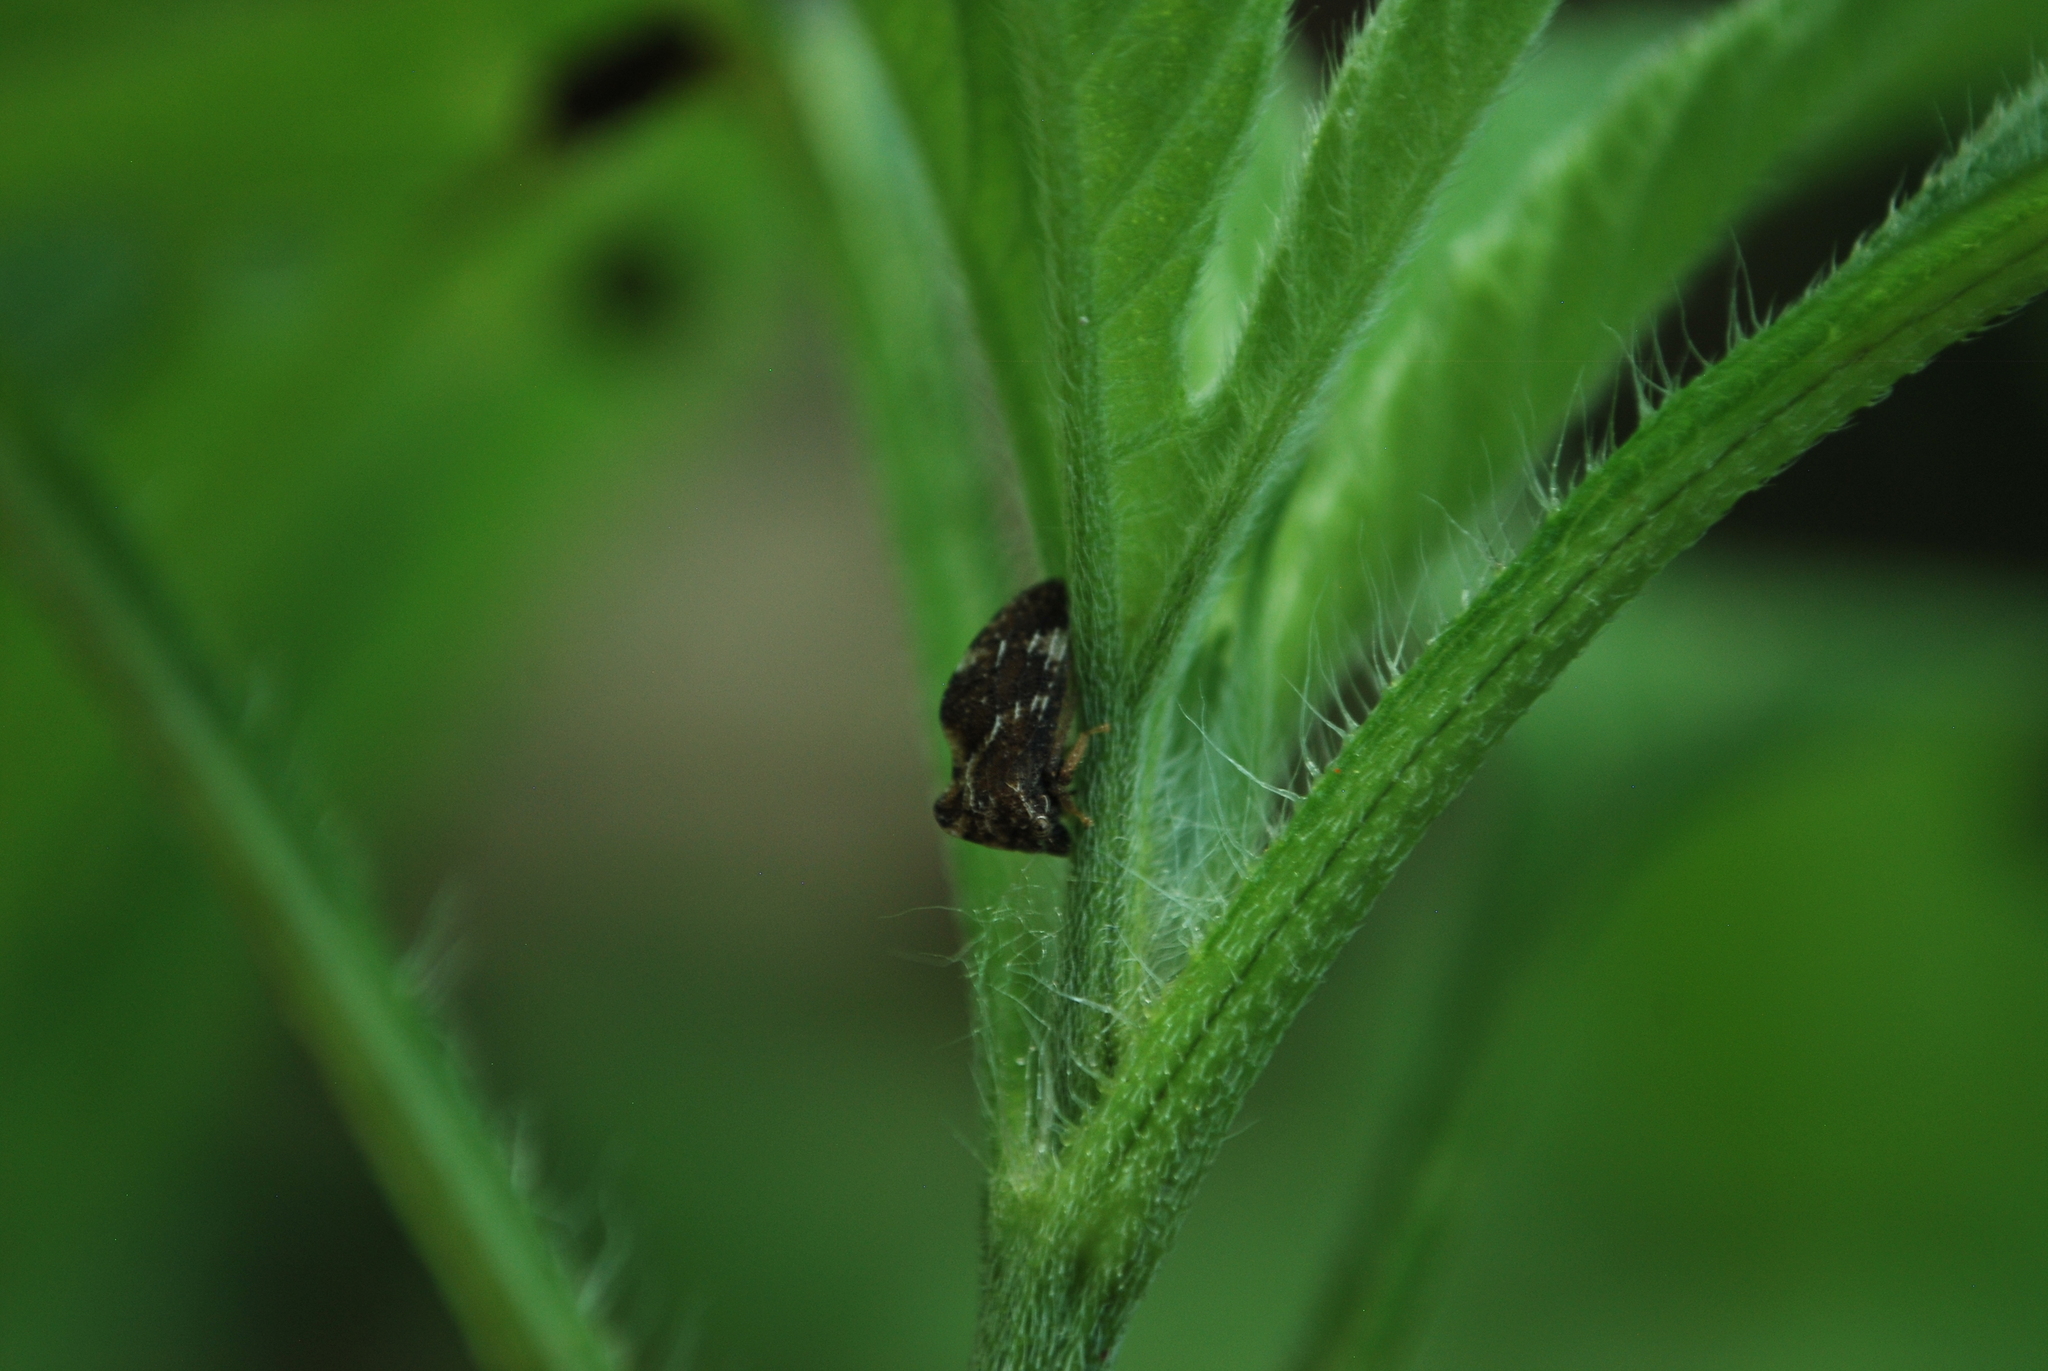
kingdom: Animalia
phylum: Arthropoda
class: Insecta
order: Hemiptera
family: Membracidae
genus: Publilia
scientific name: Publilia concava
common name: Aster treehopper
